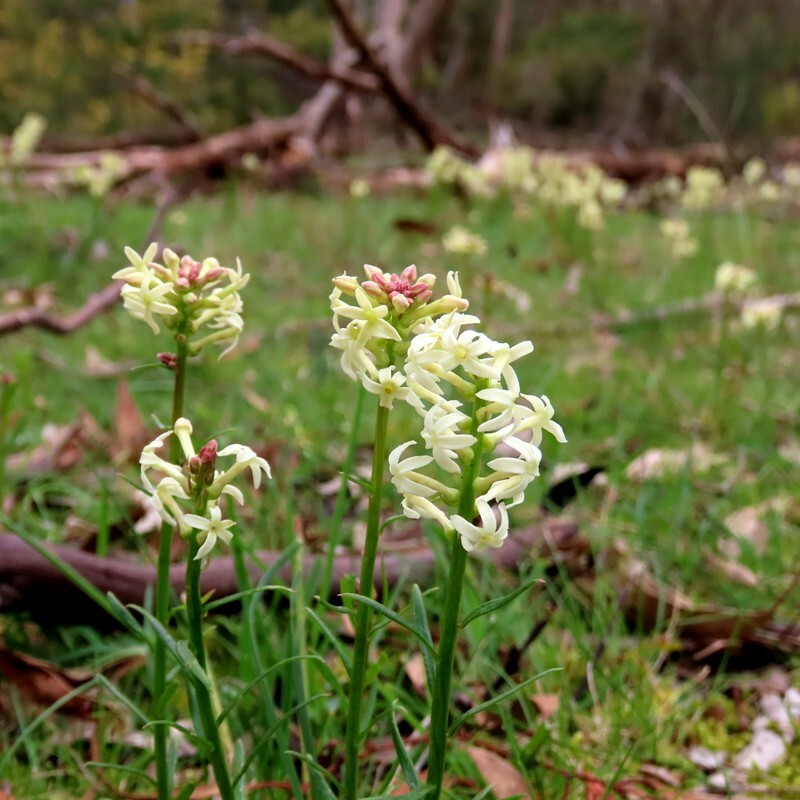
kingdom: Plantae
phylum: Tracheophyta
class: Magnoliopsida
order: Celastrales
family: Celastraceae
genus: Stackhousia
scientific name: Stackhousia monogyna
